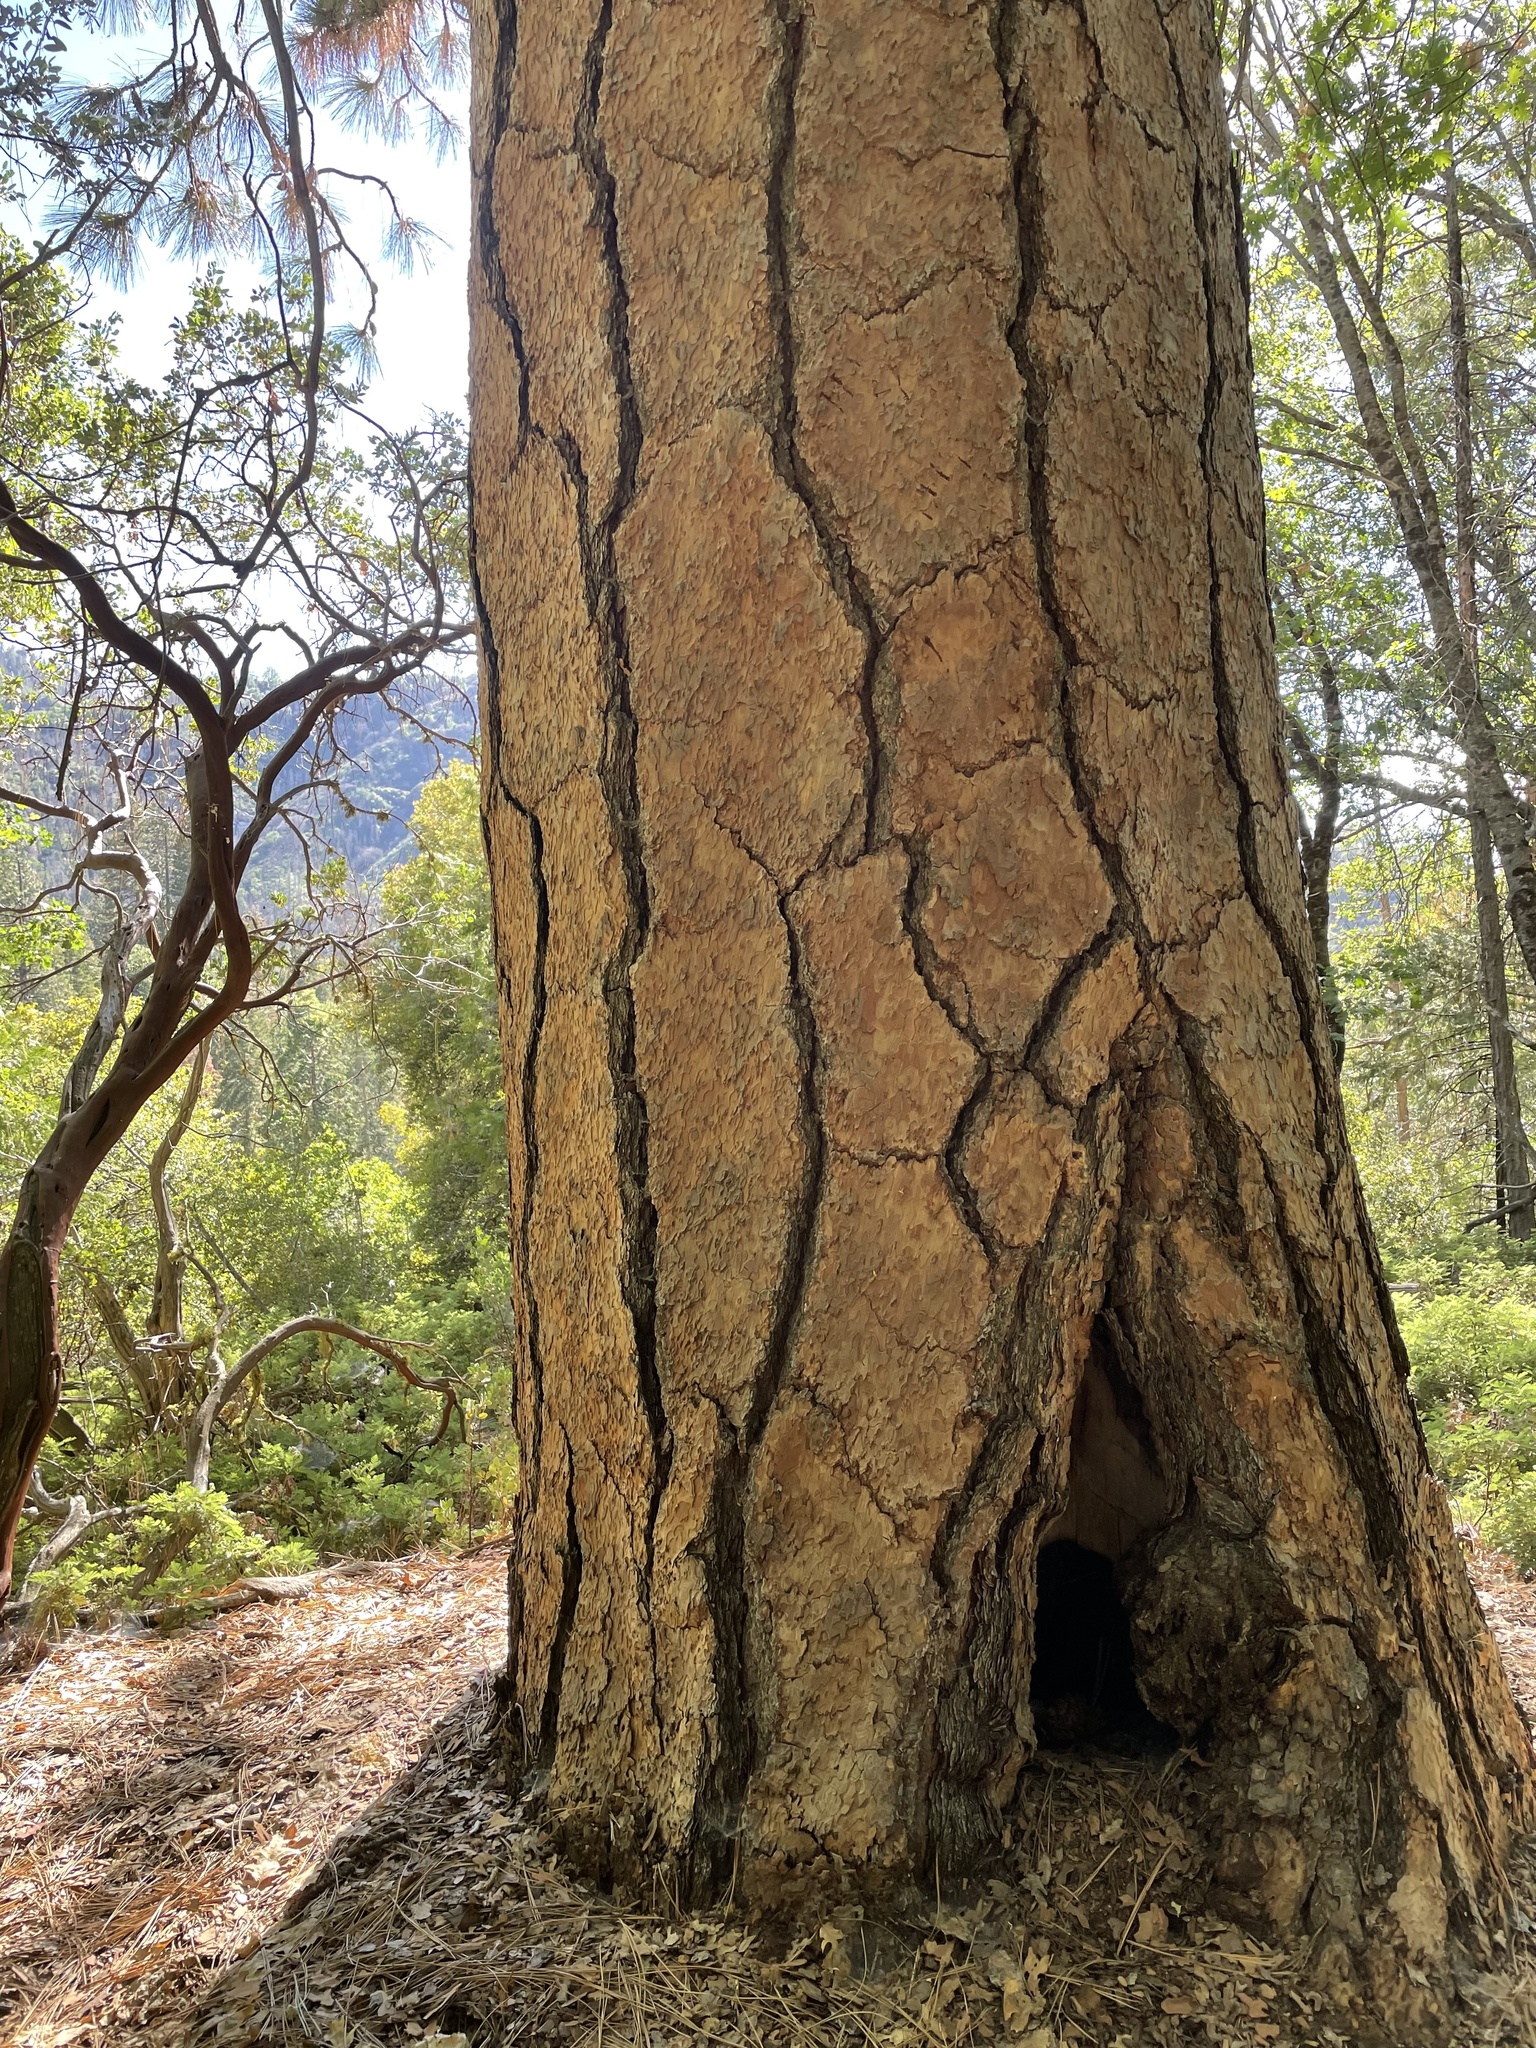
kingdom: Plantae
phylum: Tracheophyta
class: Pinopsida
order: Pinales
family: Pinaceae
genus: Pinus
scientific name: Pinus ponderosa
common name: Western yellow-pine
